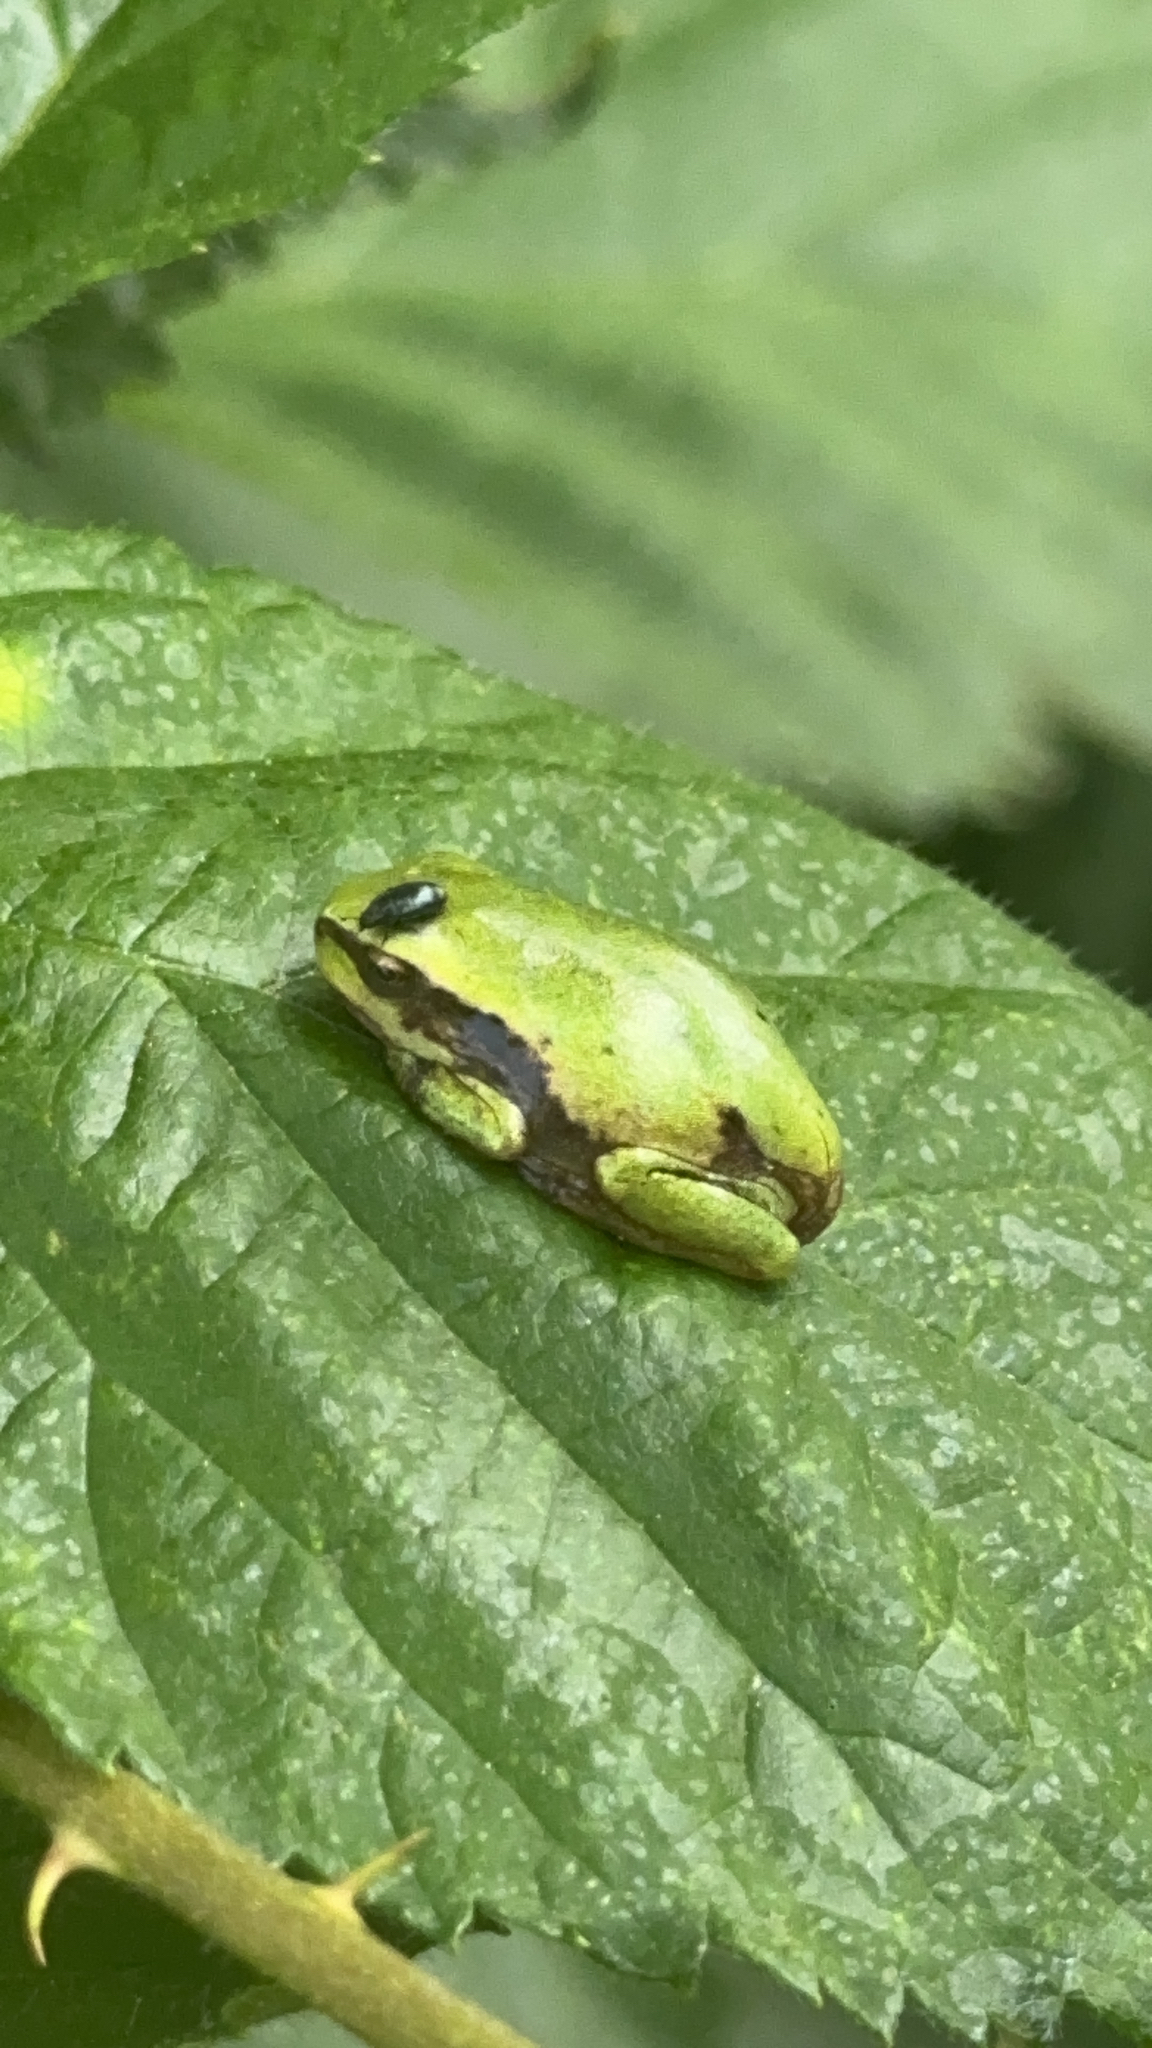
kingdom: Animalia
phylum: Chordata
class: Amphibia
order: Anura
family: Hylidae
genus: Hyla
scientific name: Hyla arborea
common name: Common tree frog
